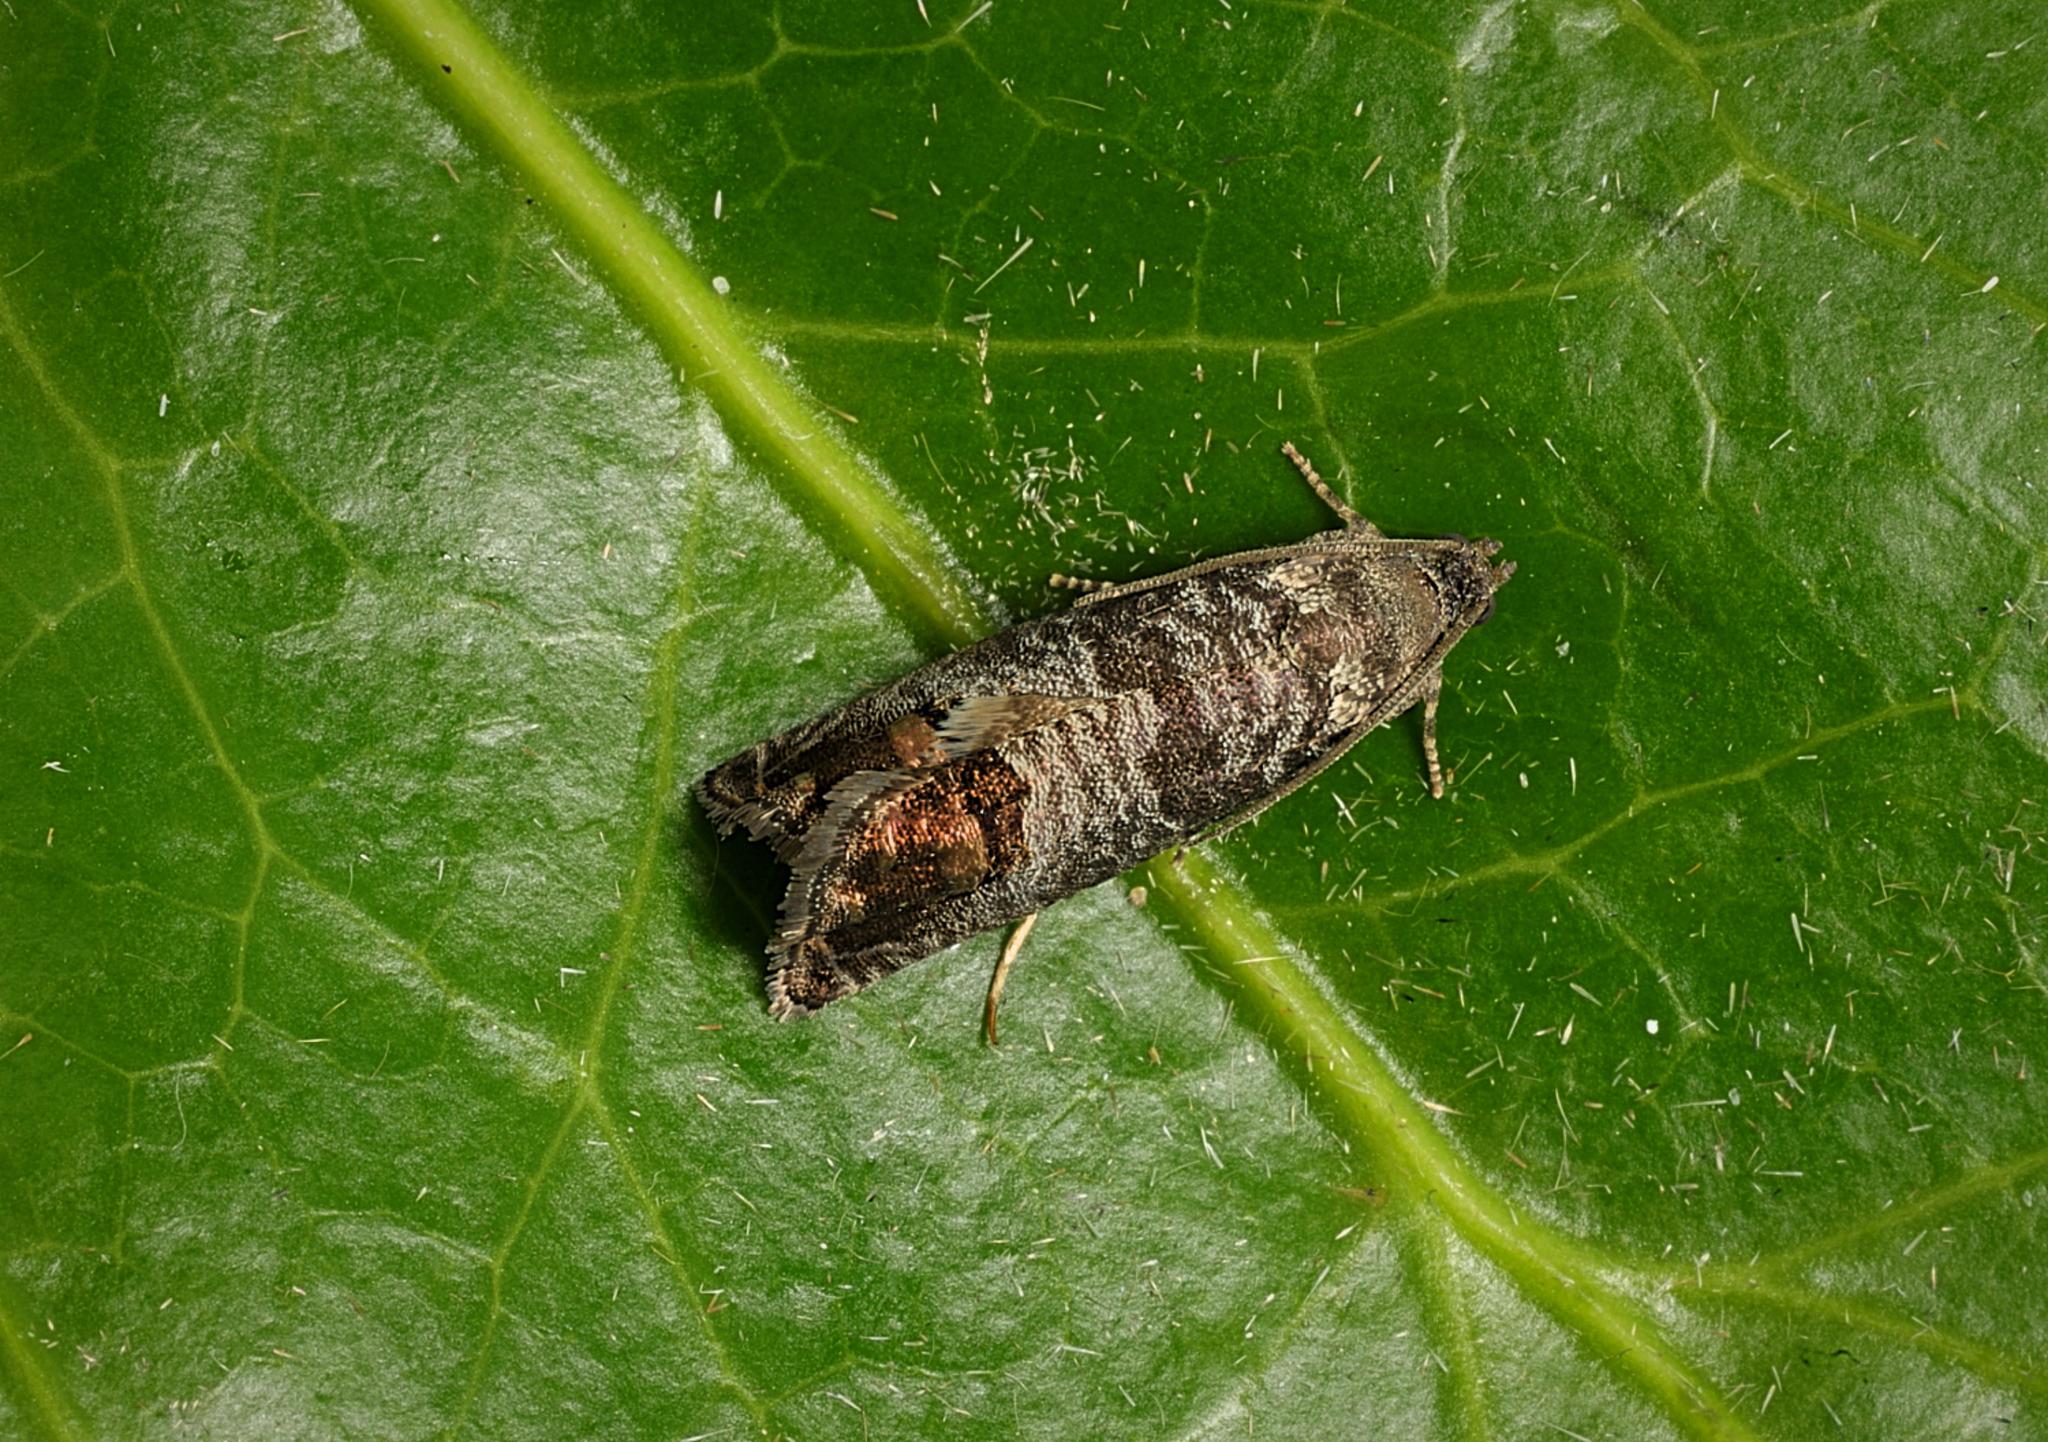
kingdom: Animalia
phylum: Arthropoda
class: Insecta
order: Lepidoptera
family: Tortricidae
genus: Cydia
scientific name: Cydia pomonella
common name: Codling moth
